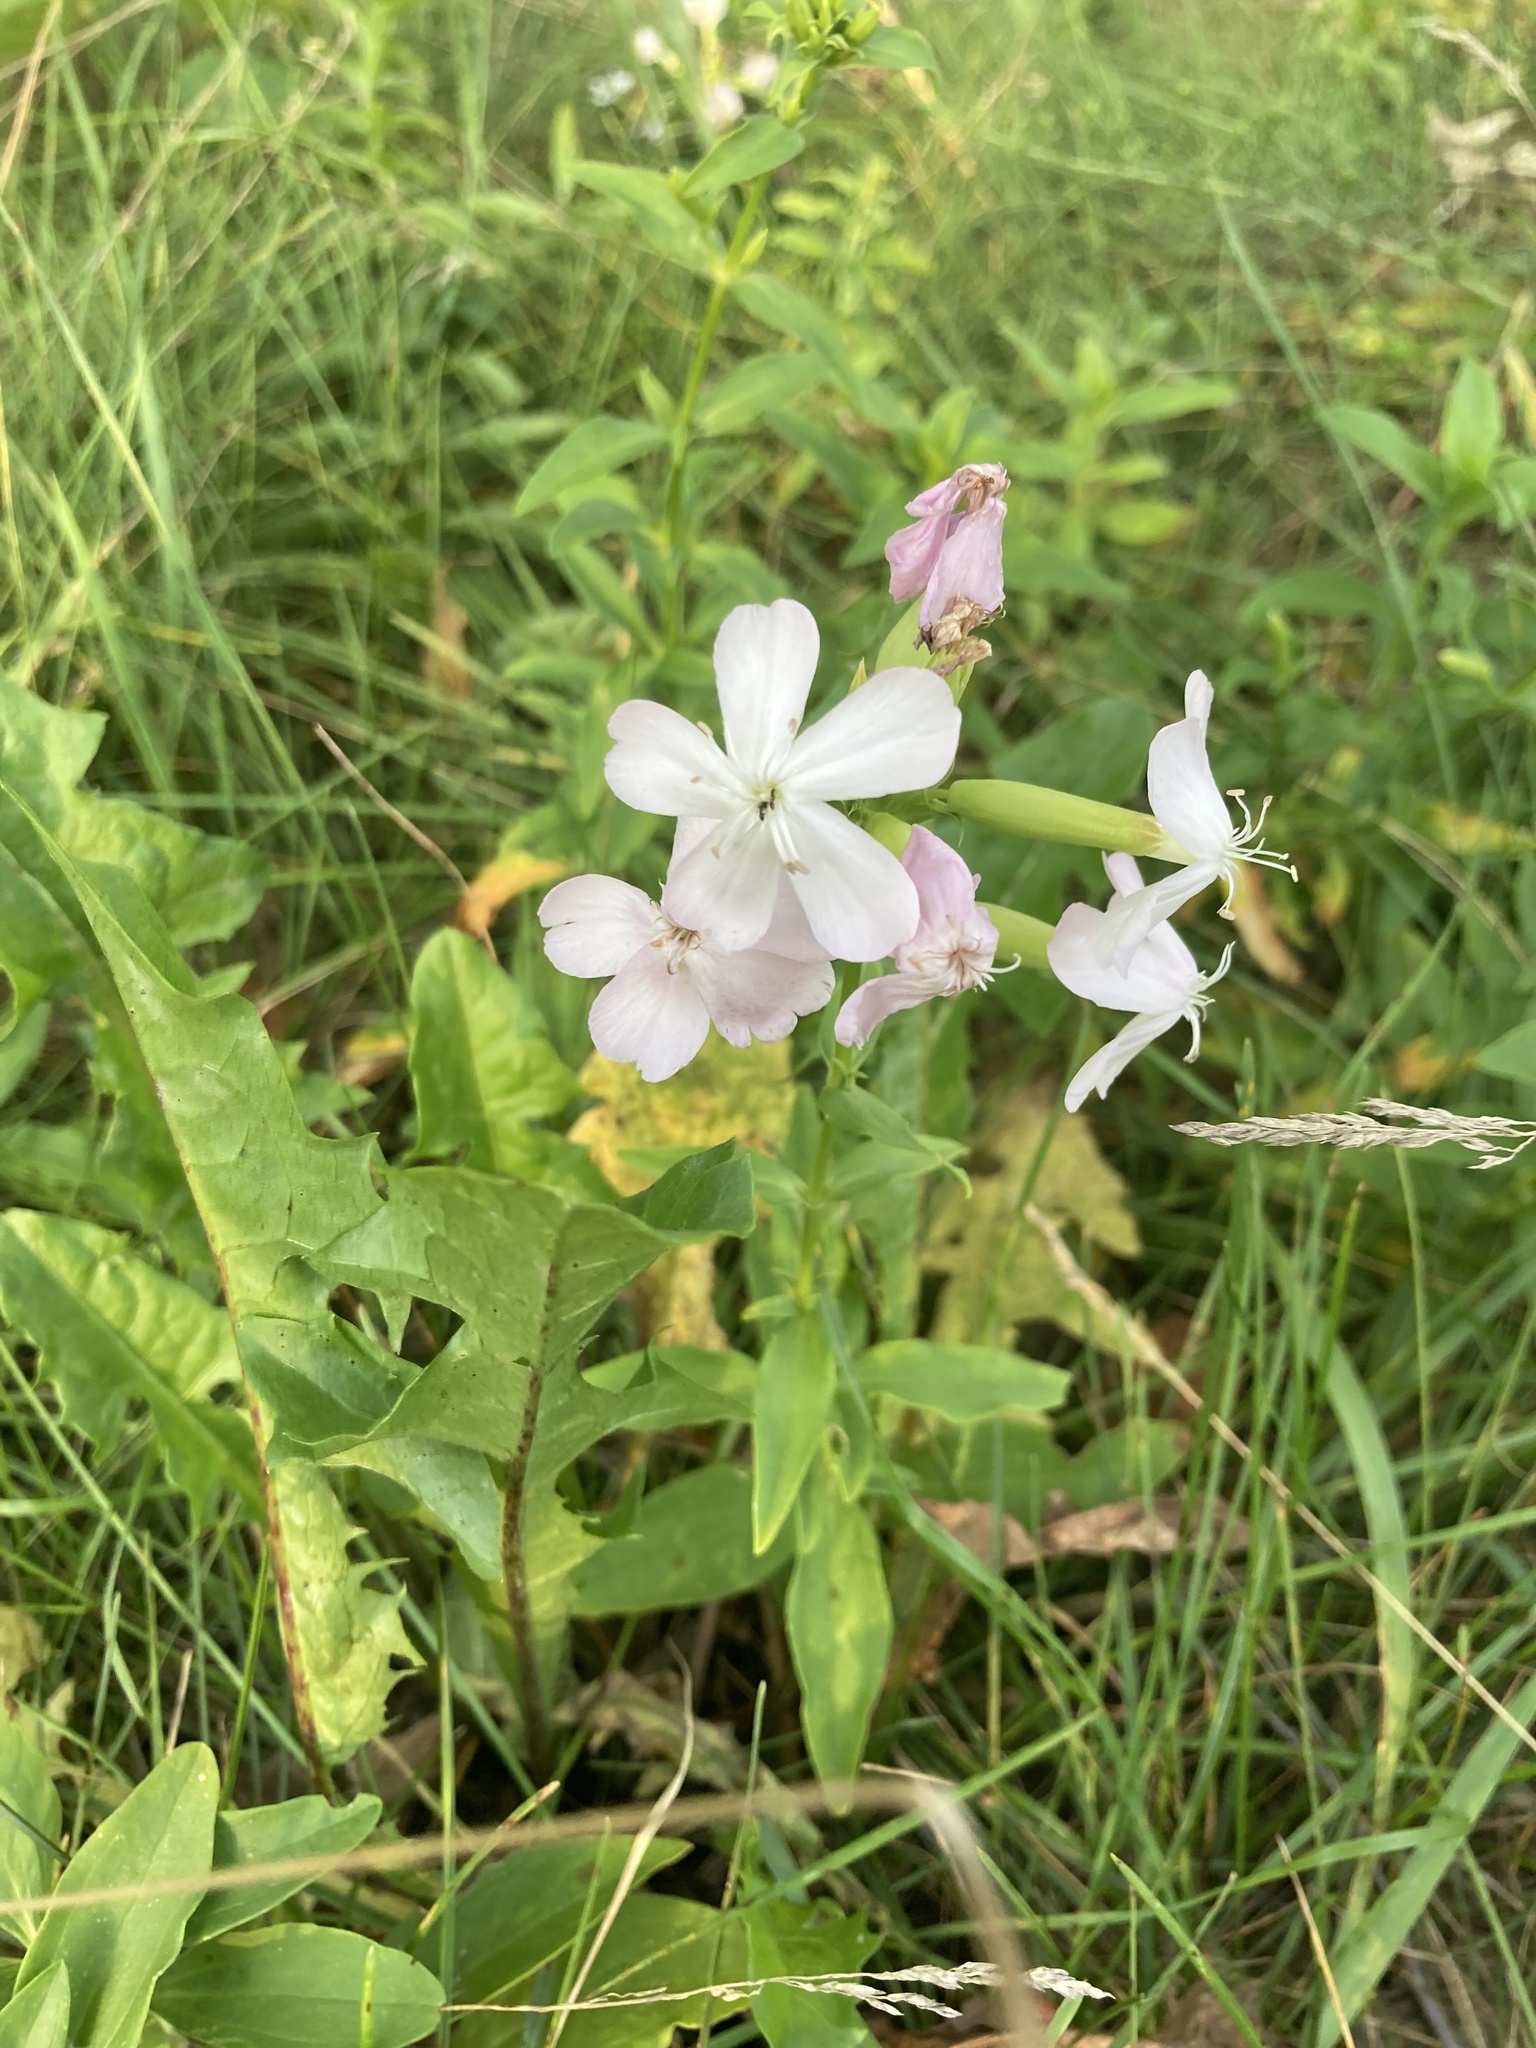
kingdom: Plantae
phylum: Tracheophyta
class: Magnoliopsida
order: Caryophyllales
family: Caryophyllaceae
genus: Saponaria
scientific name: Saponaria officinalis
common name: Soapwort
